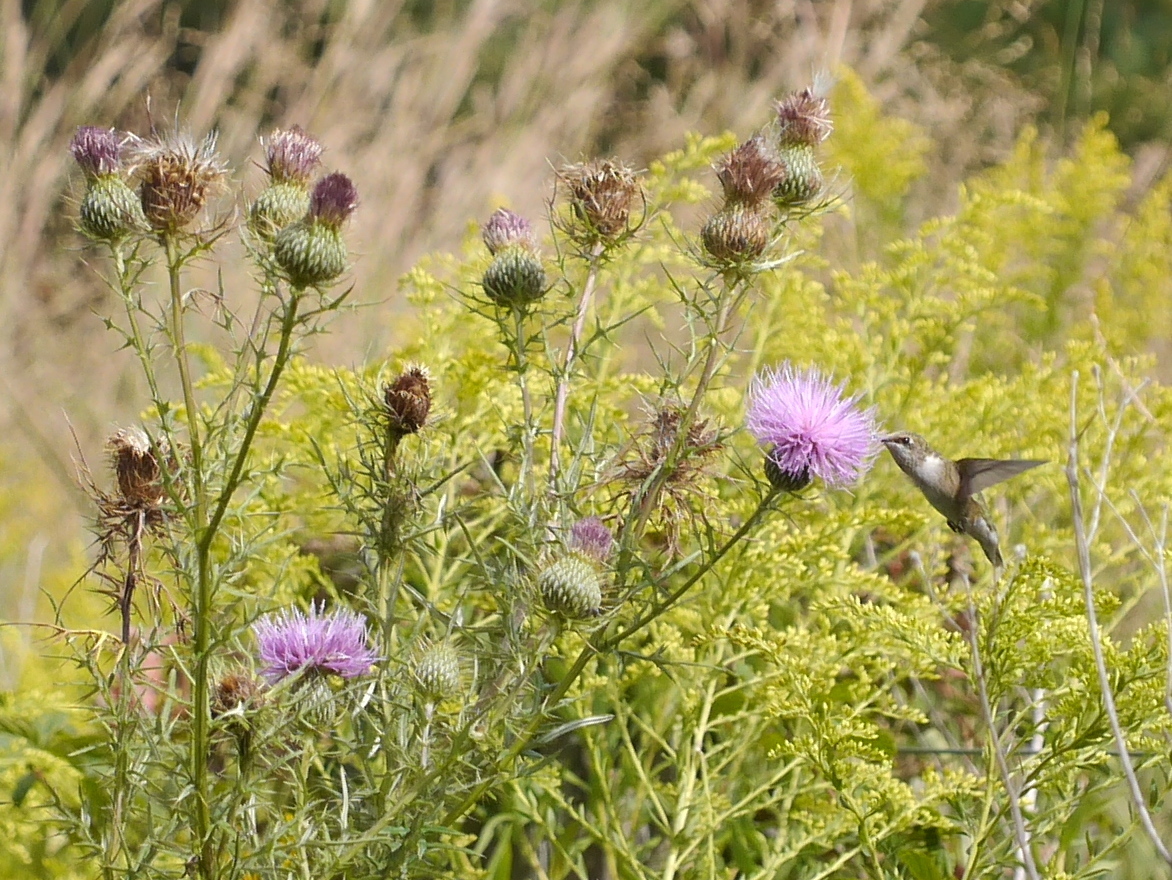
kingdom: Animalia
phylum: Chordata
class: Aves
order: Apodiformes
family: Trochilidae
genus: Archilochus
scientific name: Archilochus colubris
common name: Ruby-throated hummingbird
